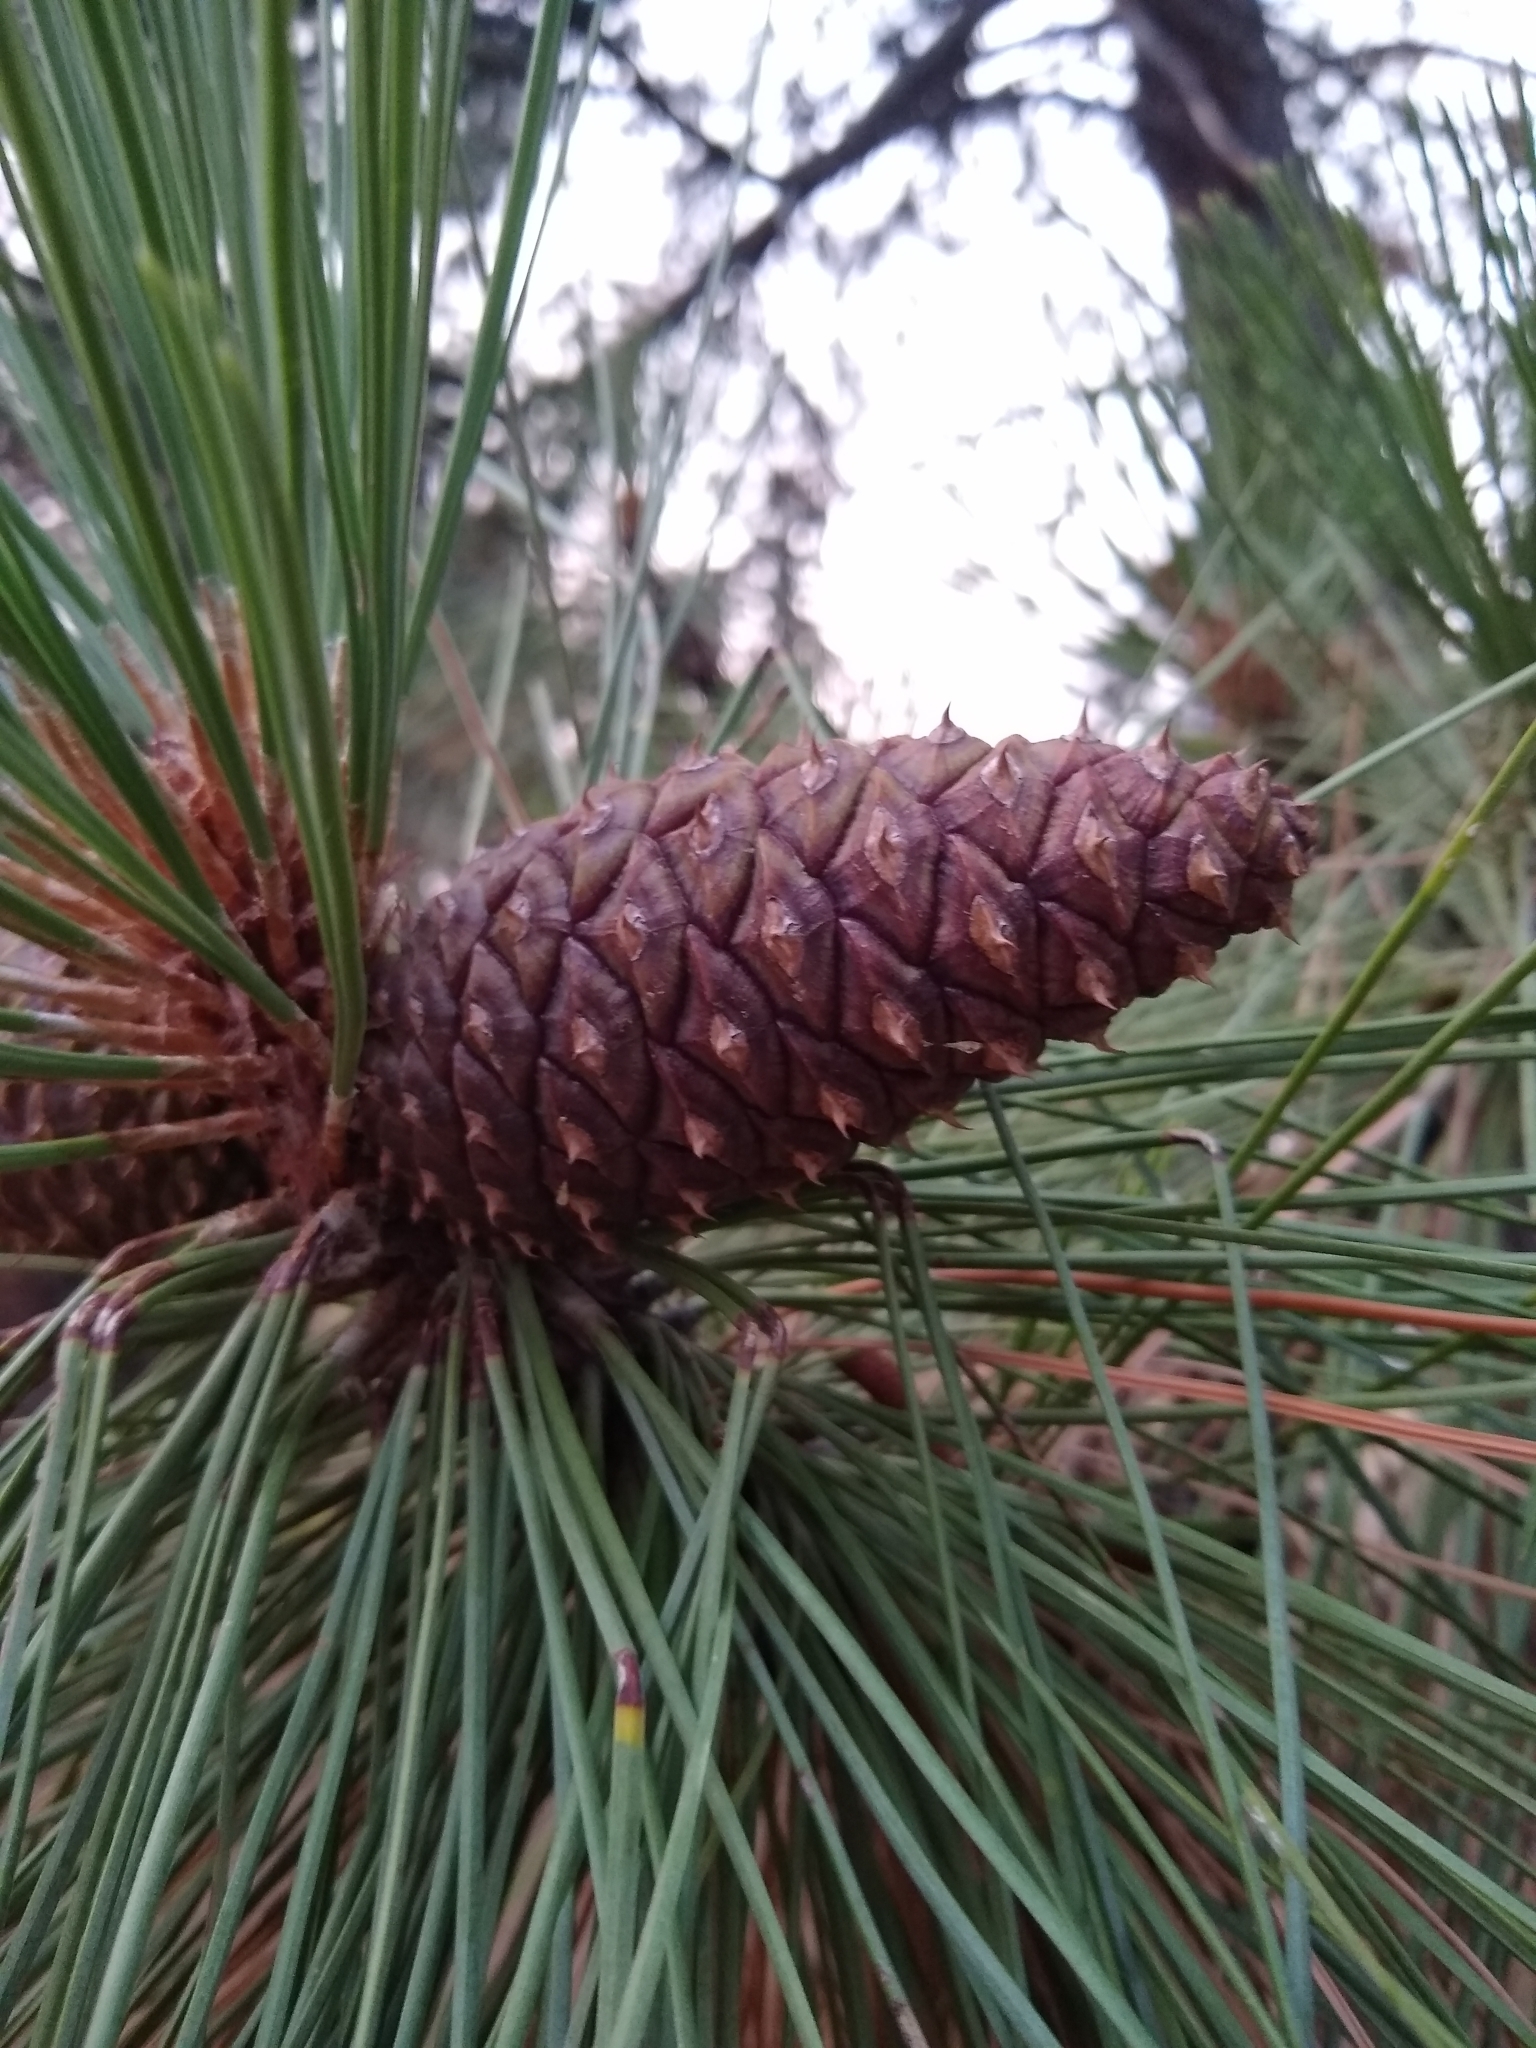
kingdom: Plantae
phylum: Tracheophyta
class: Pinopsida
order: Pinales
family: Pinaceae
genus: Pinus
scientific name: Pinus ponderosa
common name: Western yellow-pine
